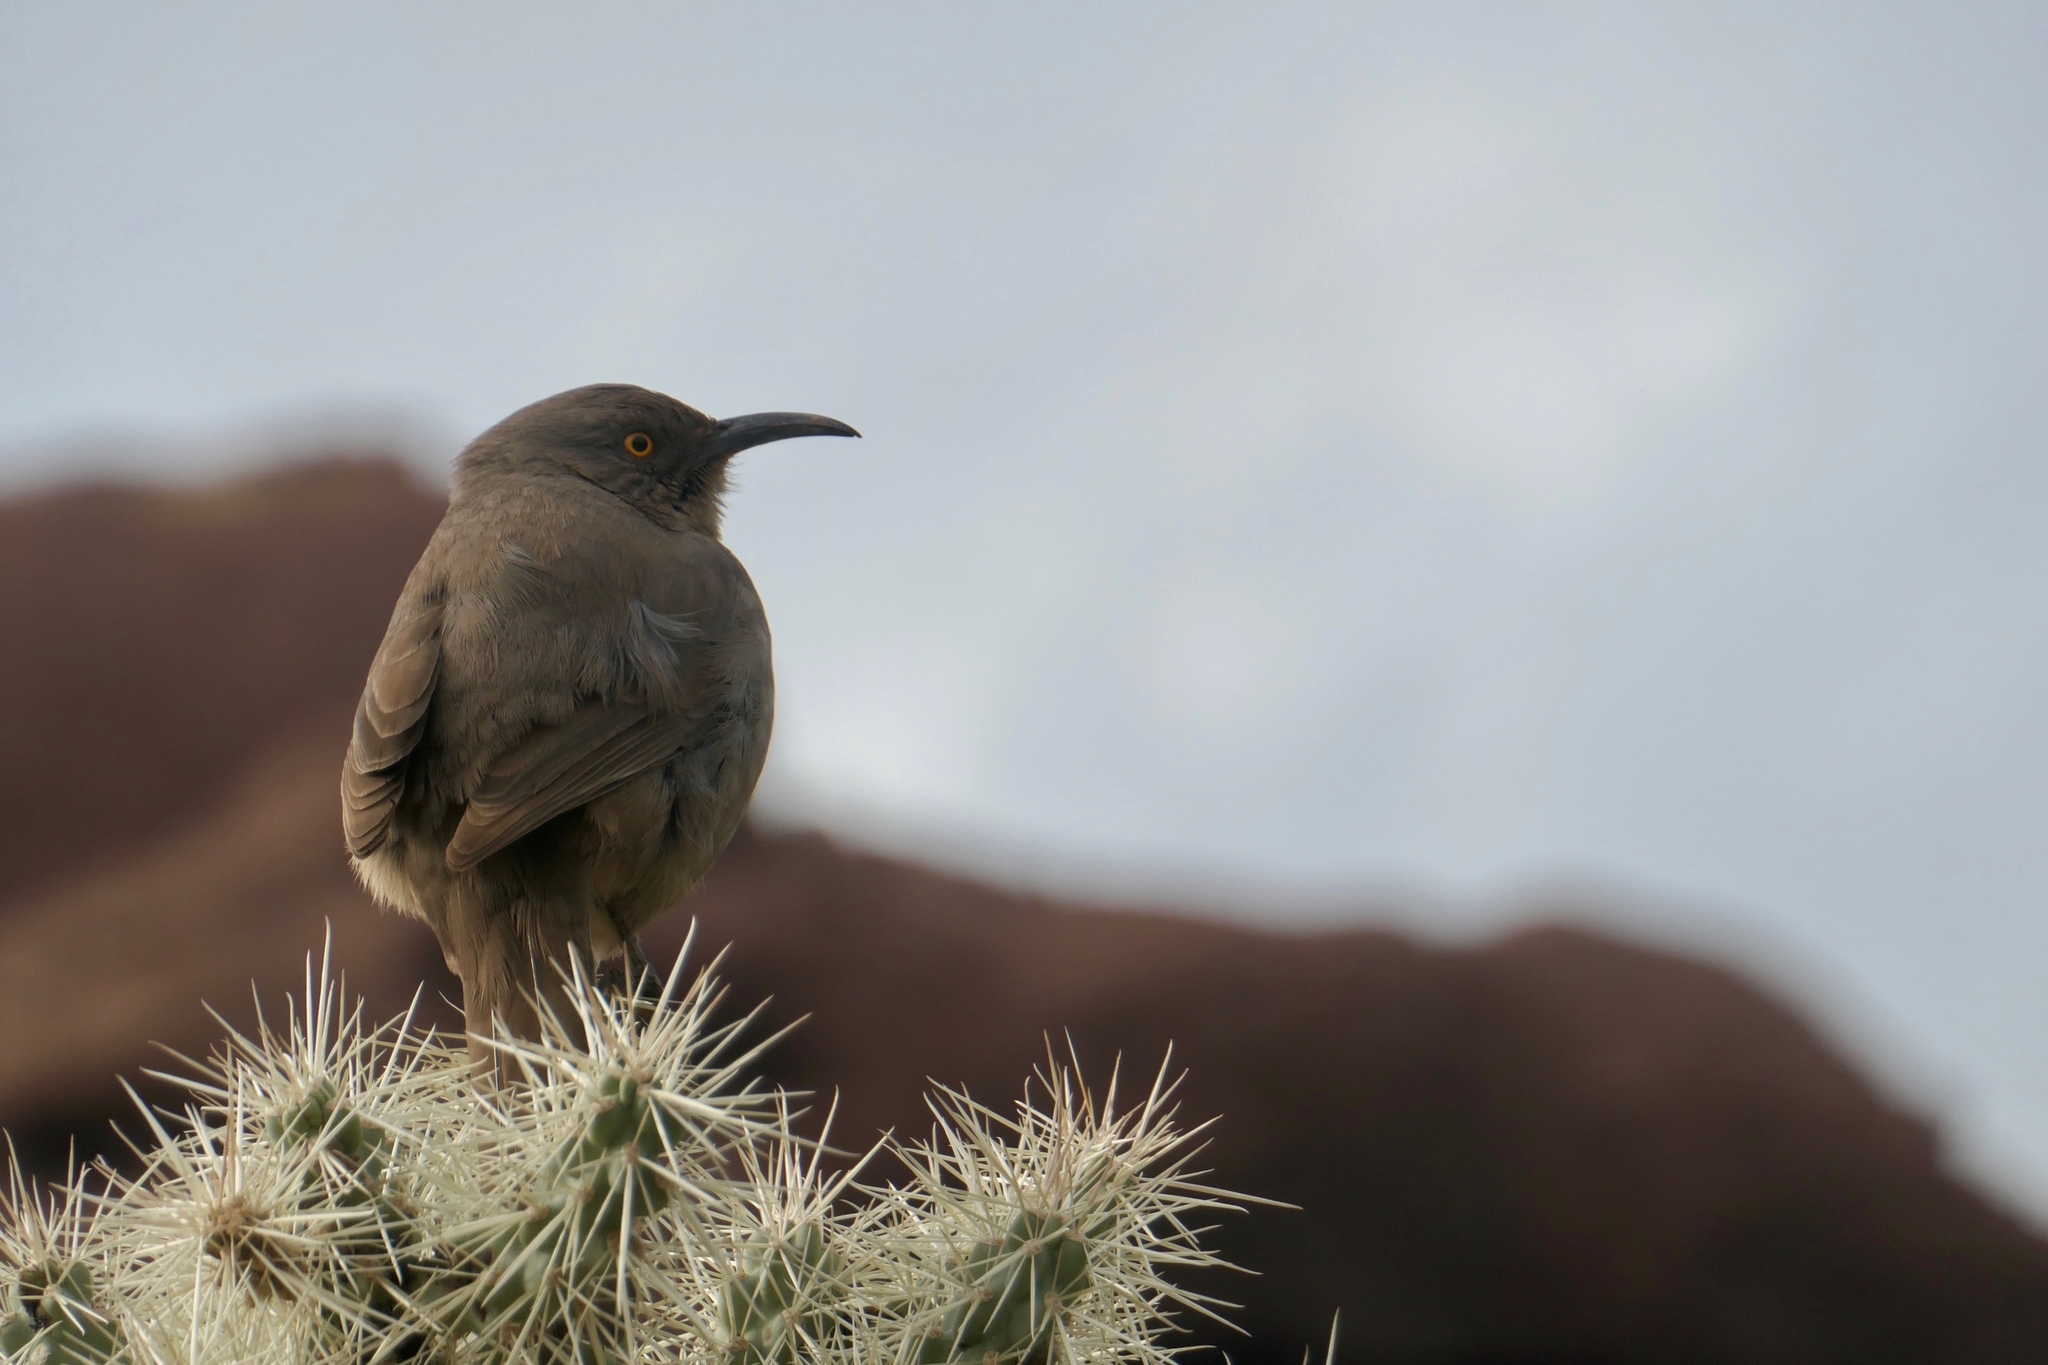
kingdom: Animalia
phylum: Chordata
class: Aves
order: Passeriformes
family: Mimidae
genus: Toxostoma
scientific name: Toxostoma curvirostre
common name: Curve-billed thrasher
